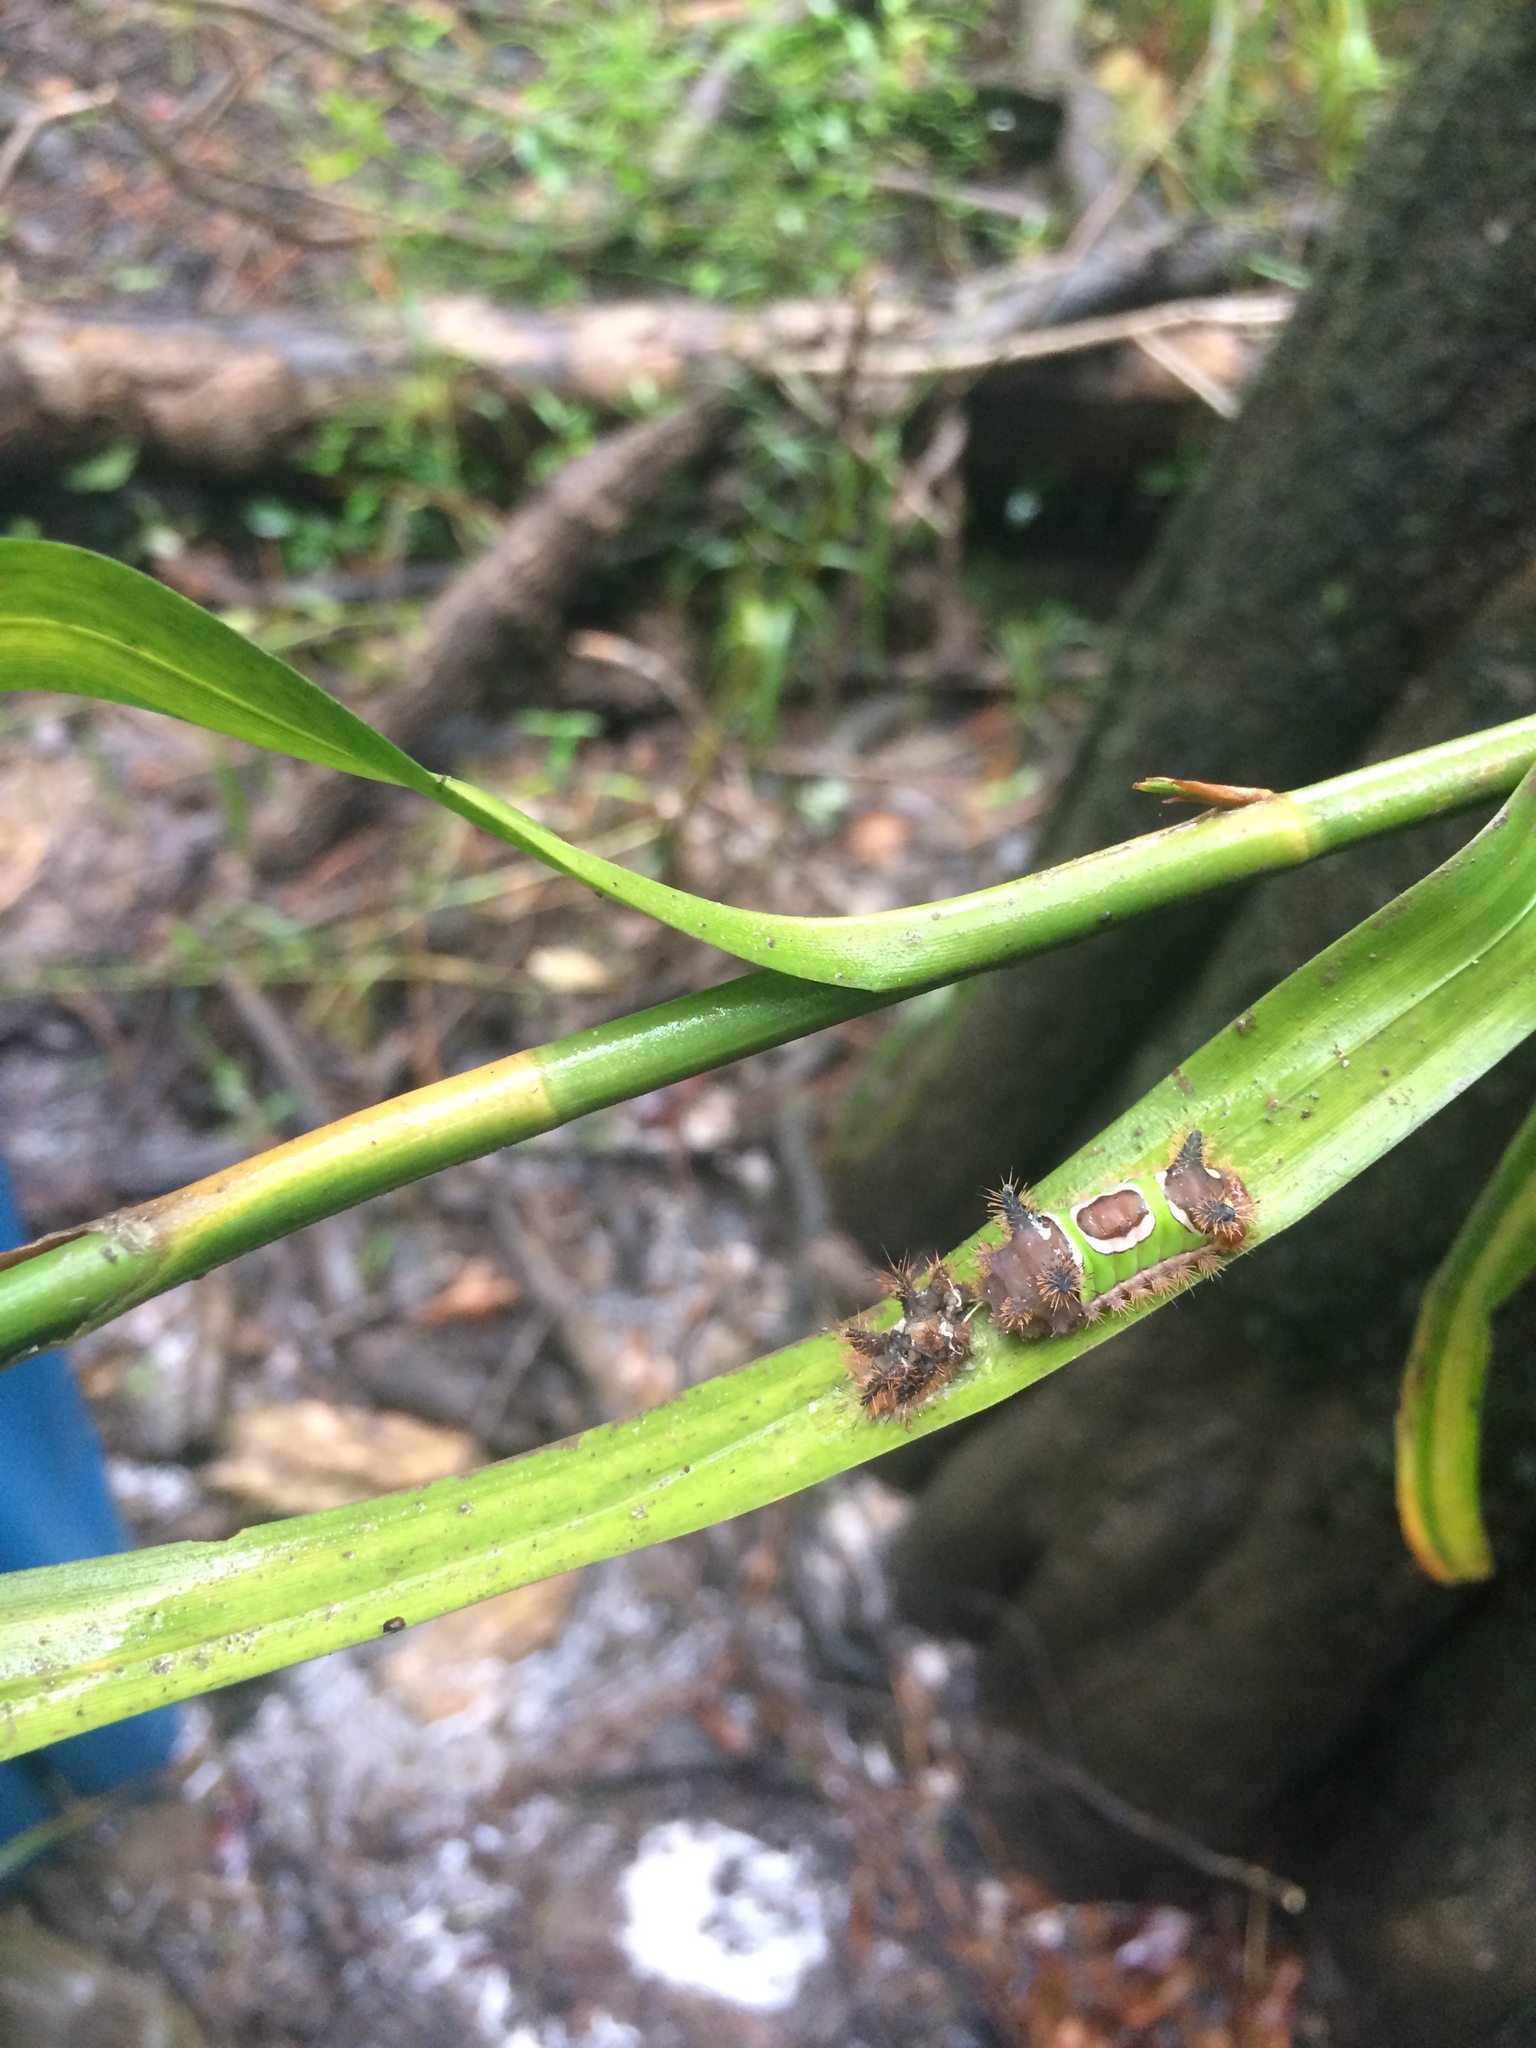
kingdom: Animalia
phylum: Arthropoda
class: Insecta
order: Lepidoptera
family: Limacodidae
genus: Acharia
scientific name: Acharia stimulea
